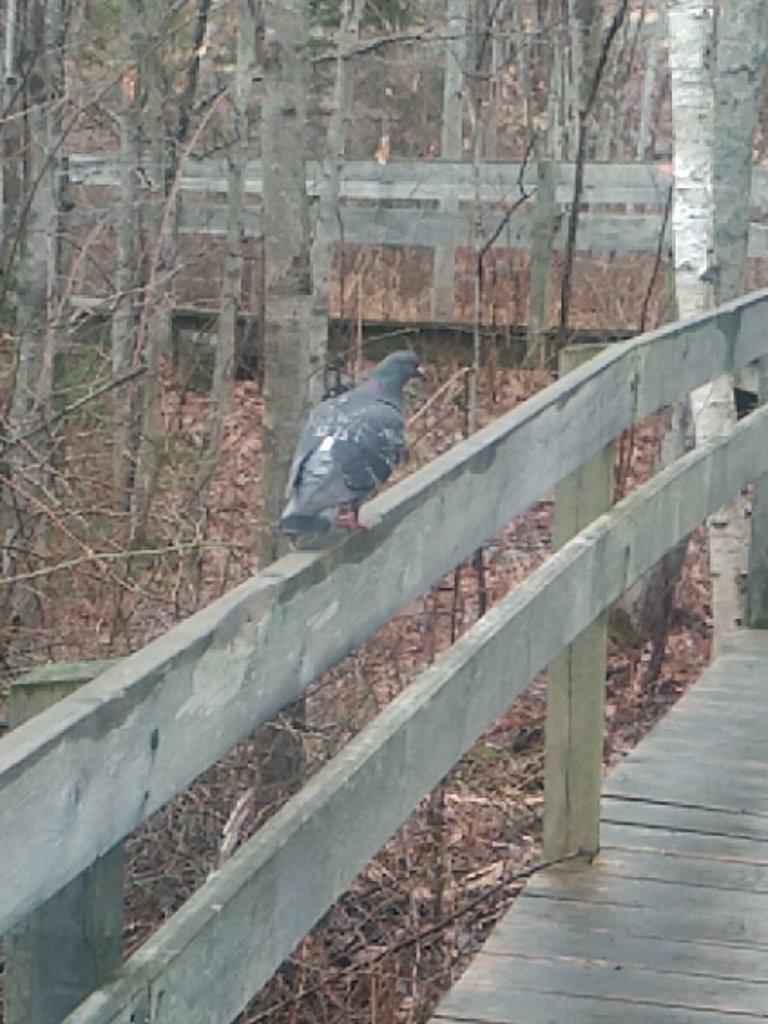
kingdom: Animalia
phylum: Chordata
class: Aves
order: Columbiformes
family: Columbidae
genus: Columba
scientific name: Columba livia
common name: Rock pigeon
